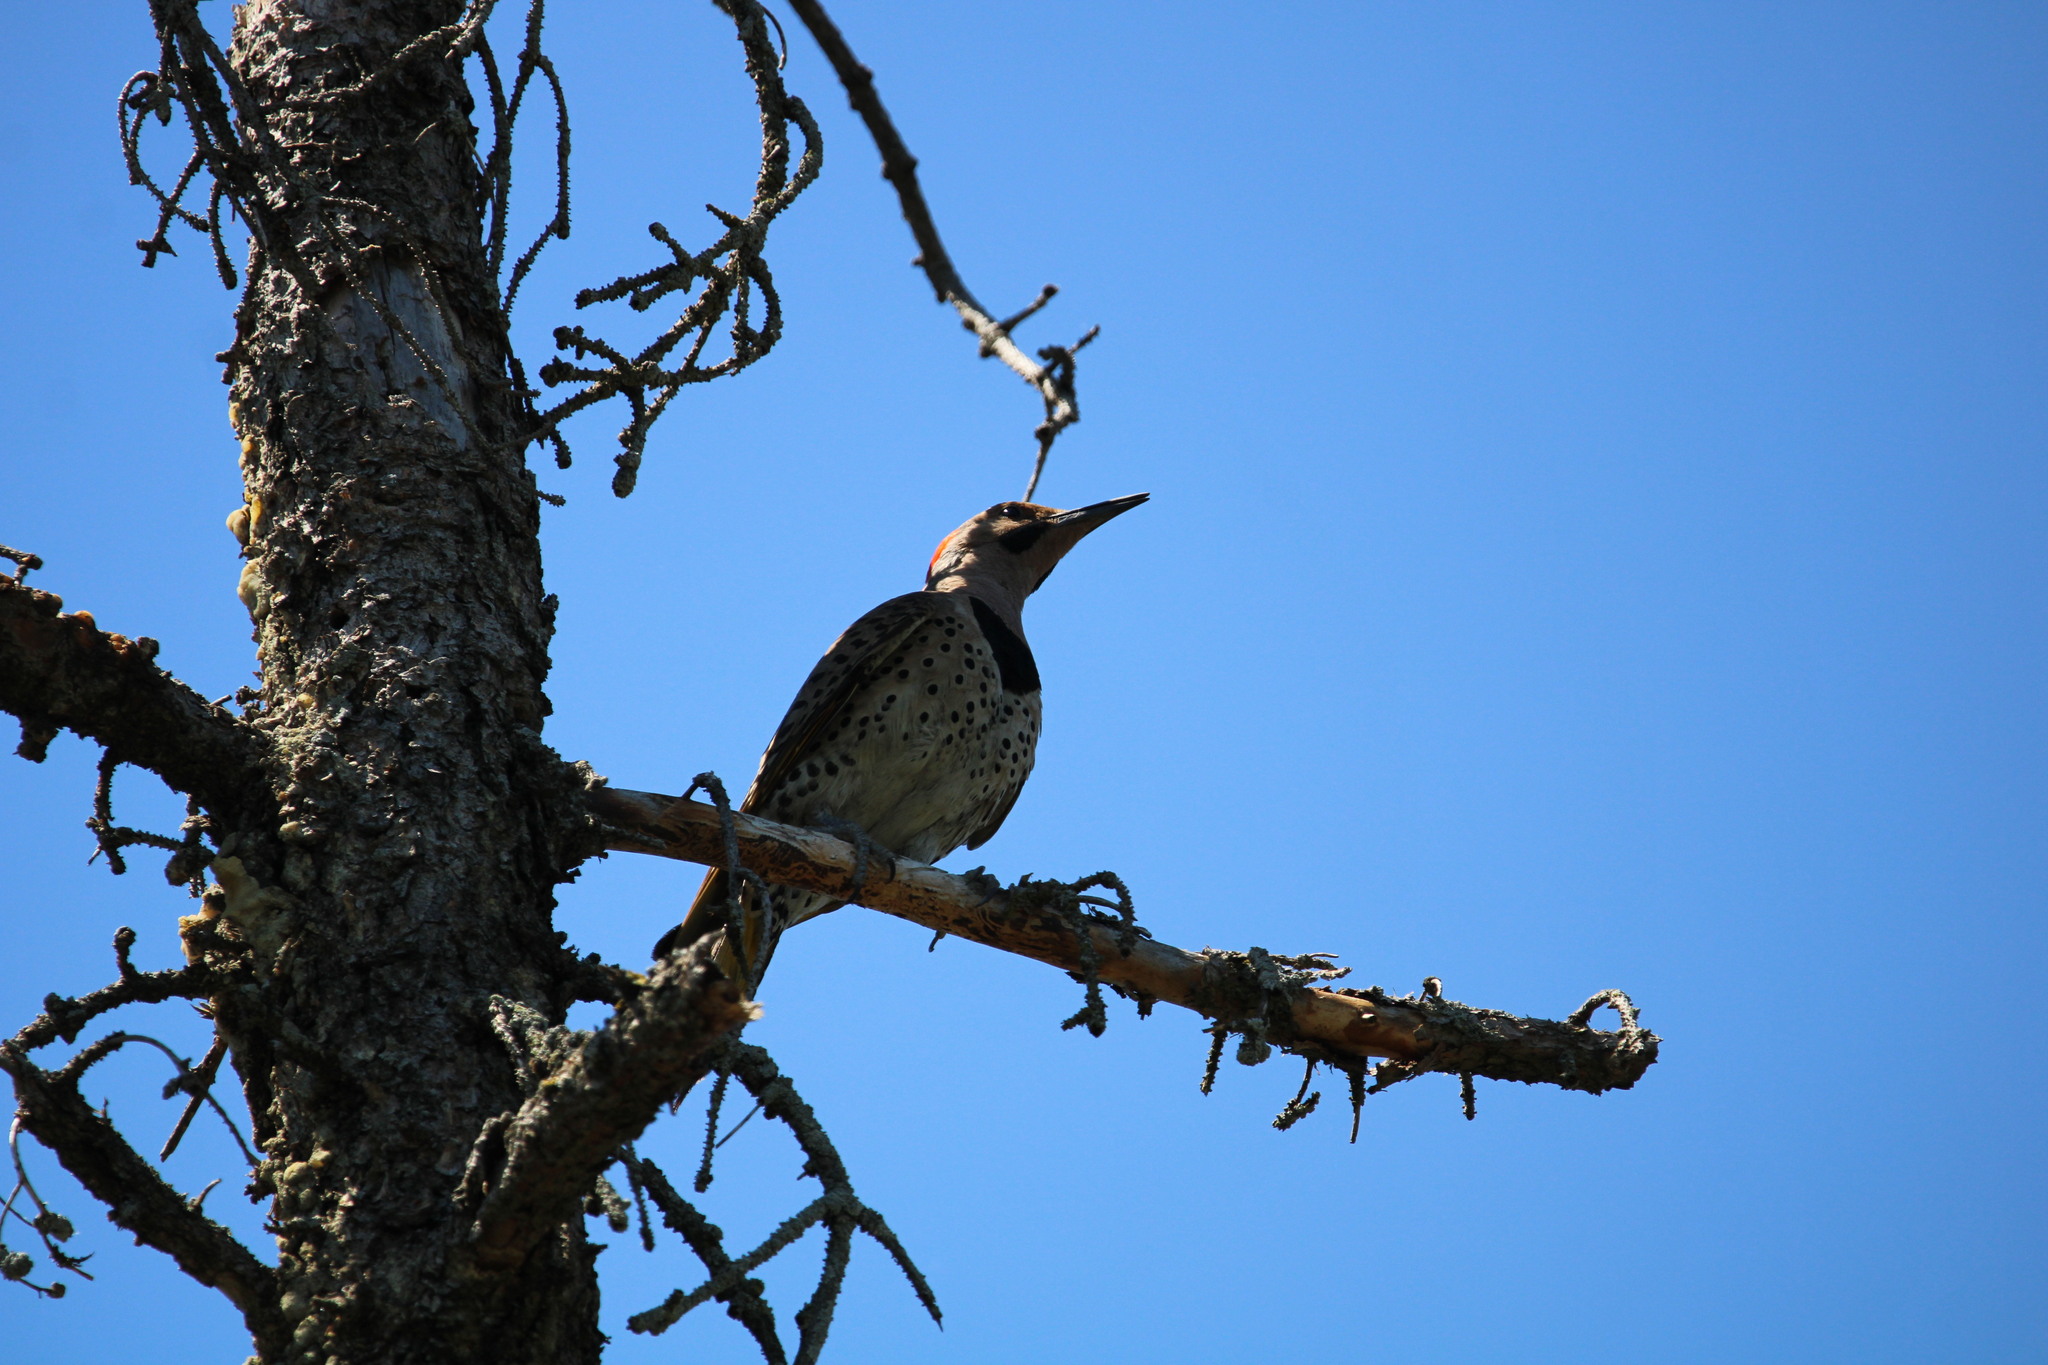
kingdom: Animalia
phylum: Chordata
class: Aves
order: Piciformes
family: Picidae
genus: Colaptes
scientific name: Colaptes auratus
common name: Northern flicker
